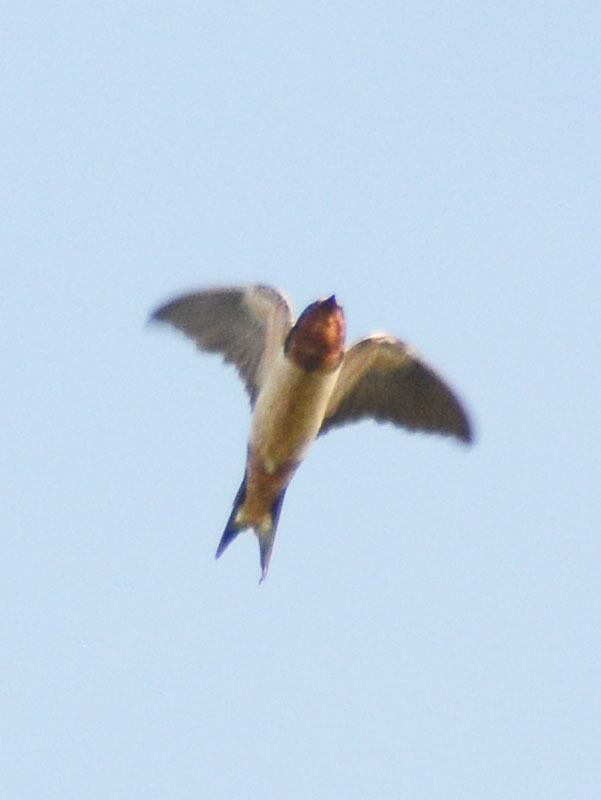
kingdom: Animalia
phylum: Chordata
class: Aves
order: Passeriformes
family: Hirundinidae
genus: Hirundo
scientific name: Hirundo rustica
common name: Barn swallow
